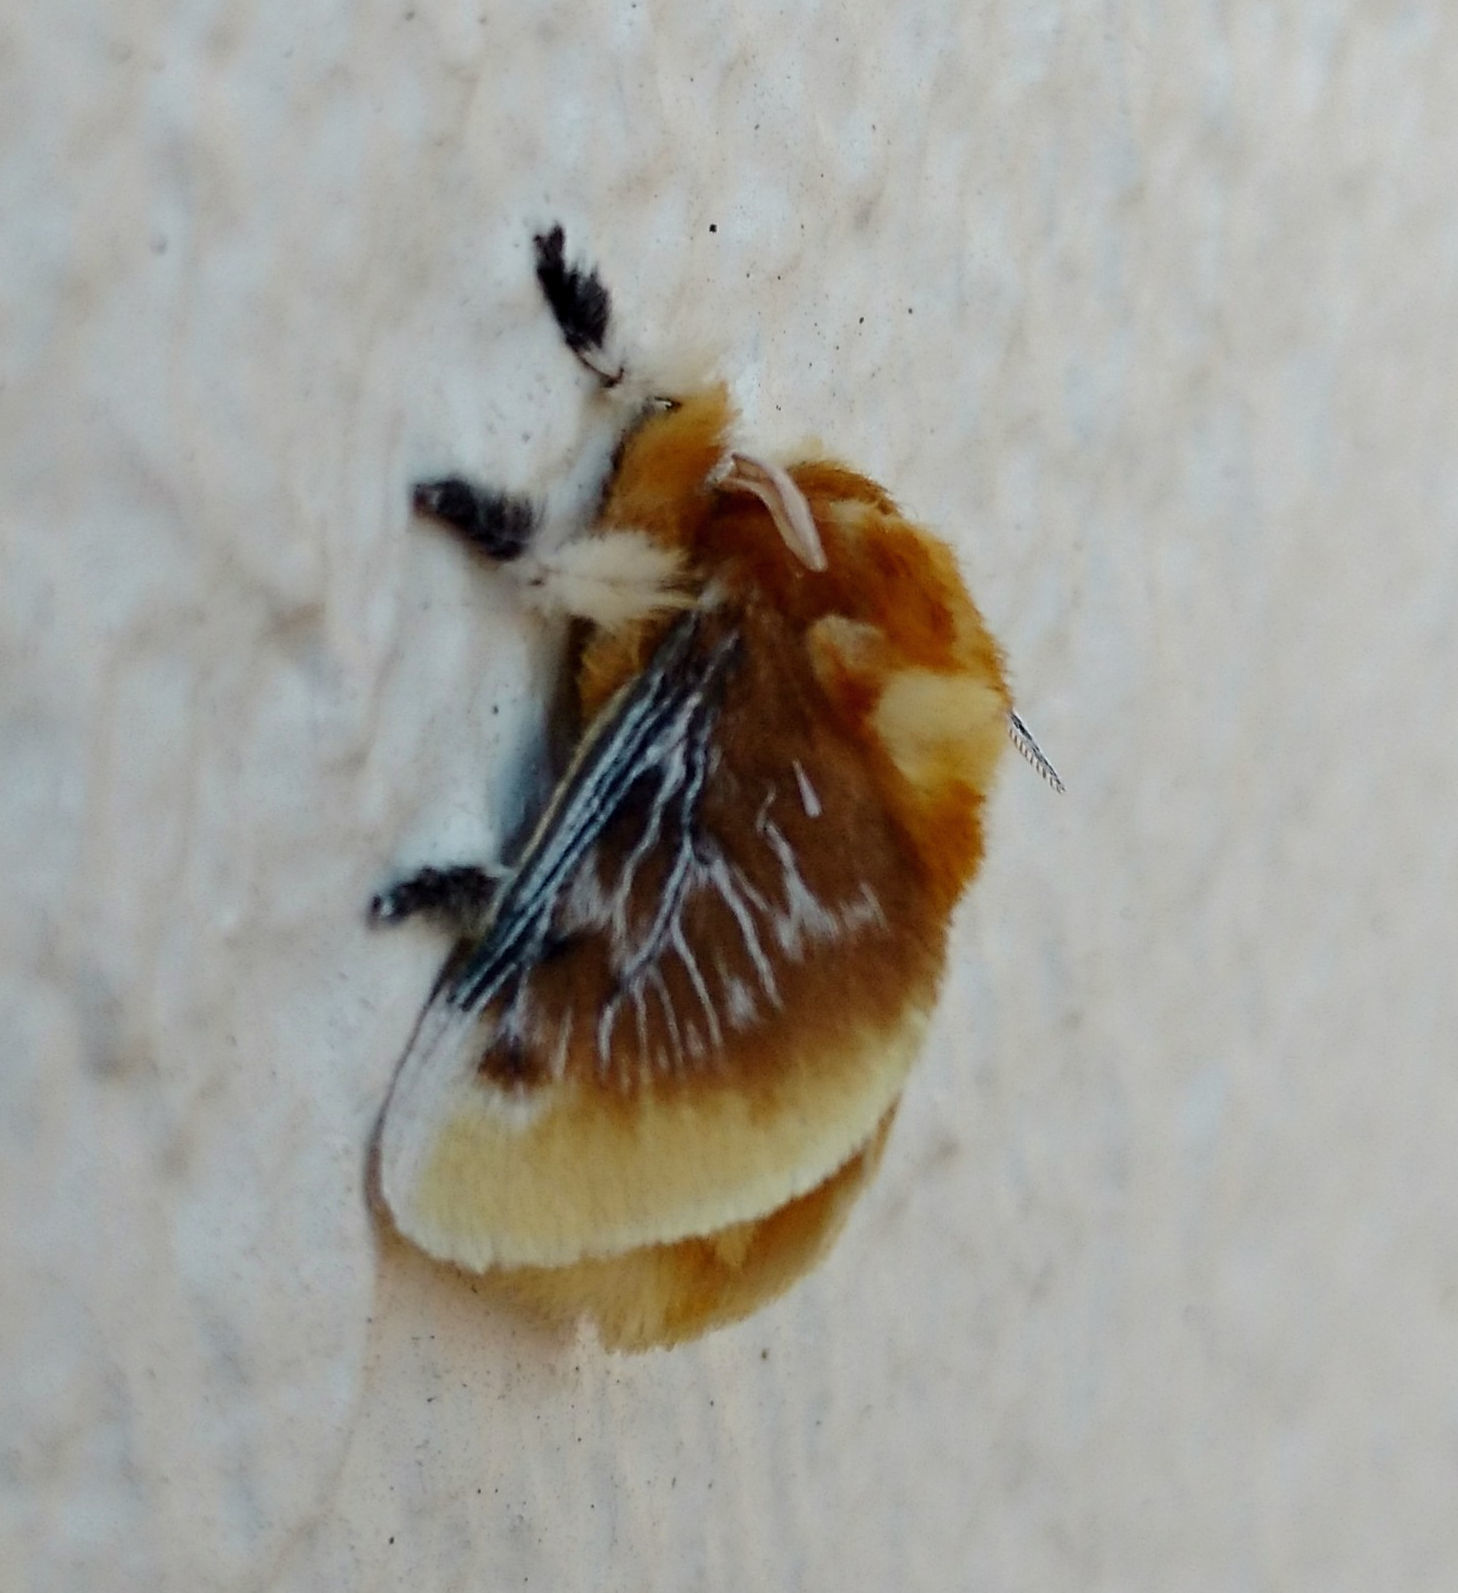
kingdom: Animalia
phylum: Arthropoda
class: Insecta
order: Lepidoptera
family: Megalopygidae
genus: Megalopyge
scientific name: Megalopyge opercularis
